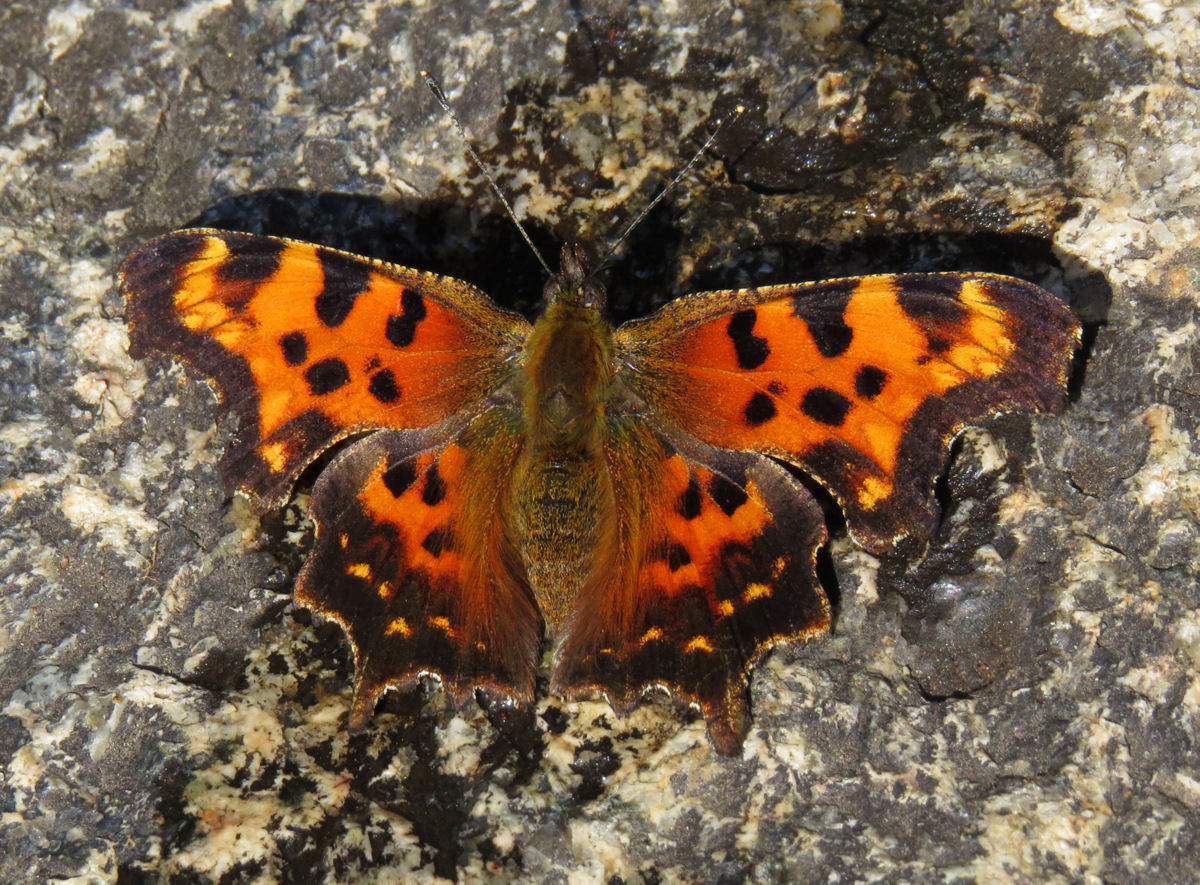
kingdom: Animalia
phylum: Arthropoda
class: Insecta
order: Lepidoptera
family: Nymphalidae
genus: Polygonia
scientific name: Polygonia faunus
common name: Green comma
